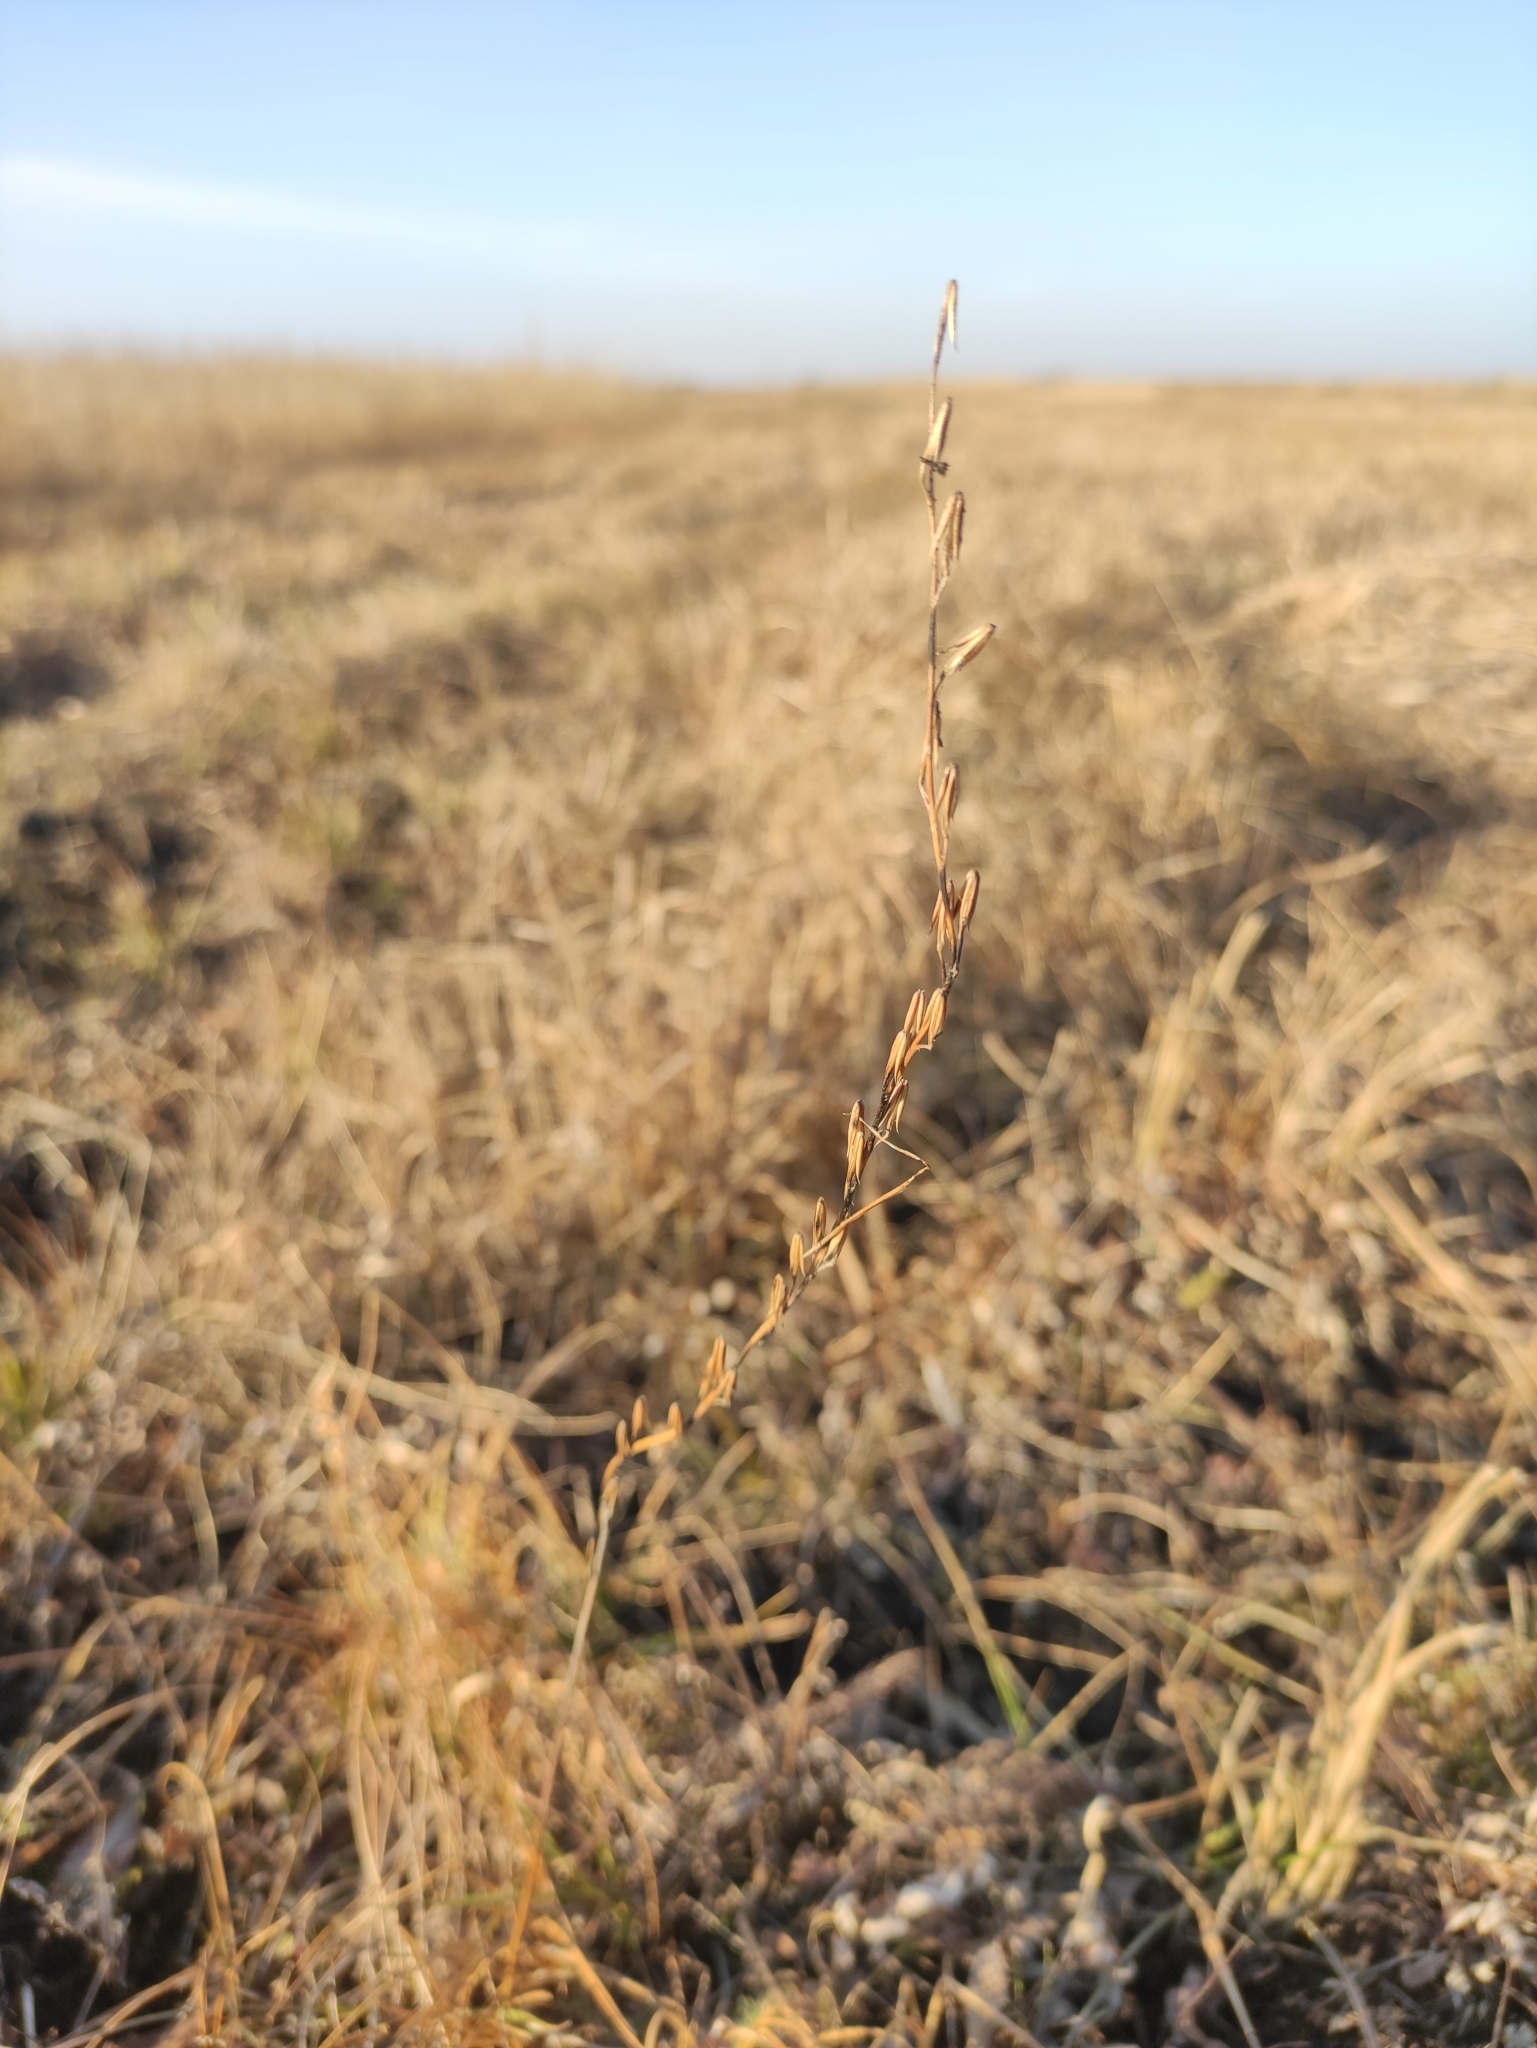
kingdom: Plantae
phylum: Tracheophyta
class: Liliopsida
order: Alismatales
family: Juncaginaceae
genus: Triglochin
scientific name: Triglochin palustris
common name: Marsh arrowgrass
